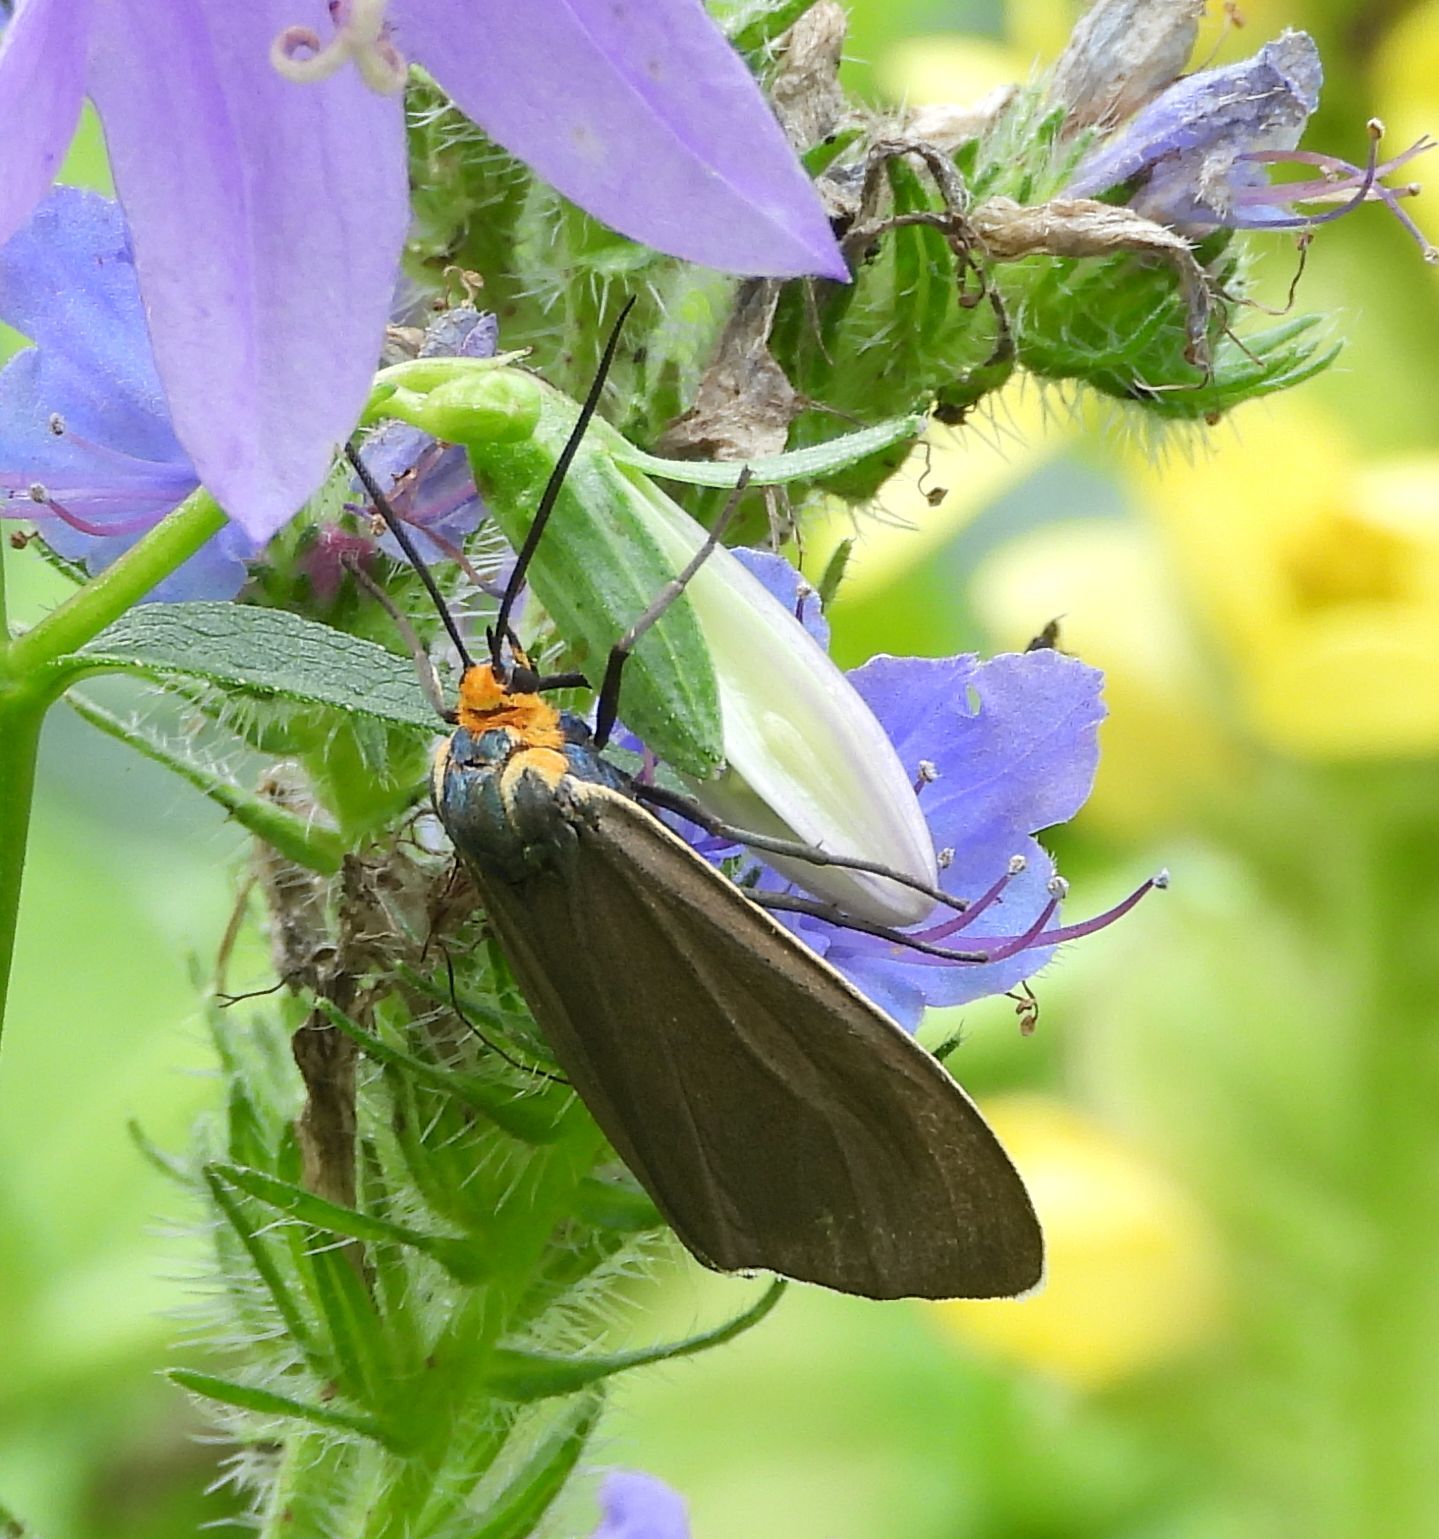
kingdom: Animalia
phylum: Arthropoda
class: Insecta
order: Lepidoptera
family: Erebidae
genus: Ctenucha
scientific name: Ctenucha virginica
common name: Virginia ctenucha moth
